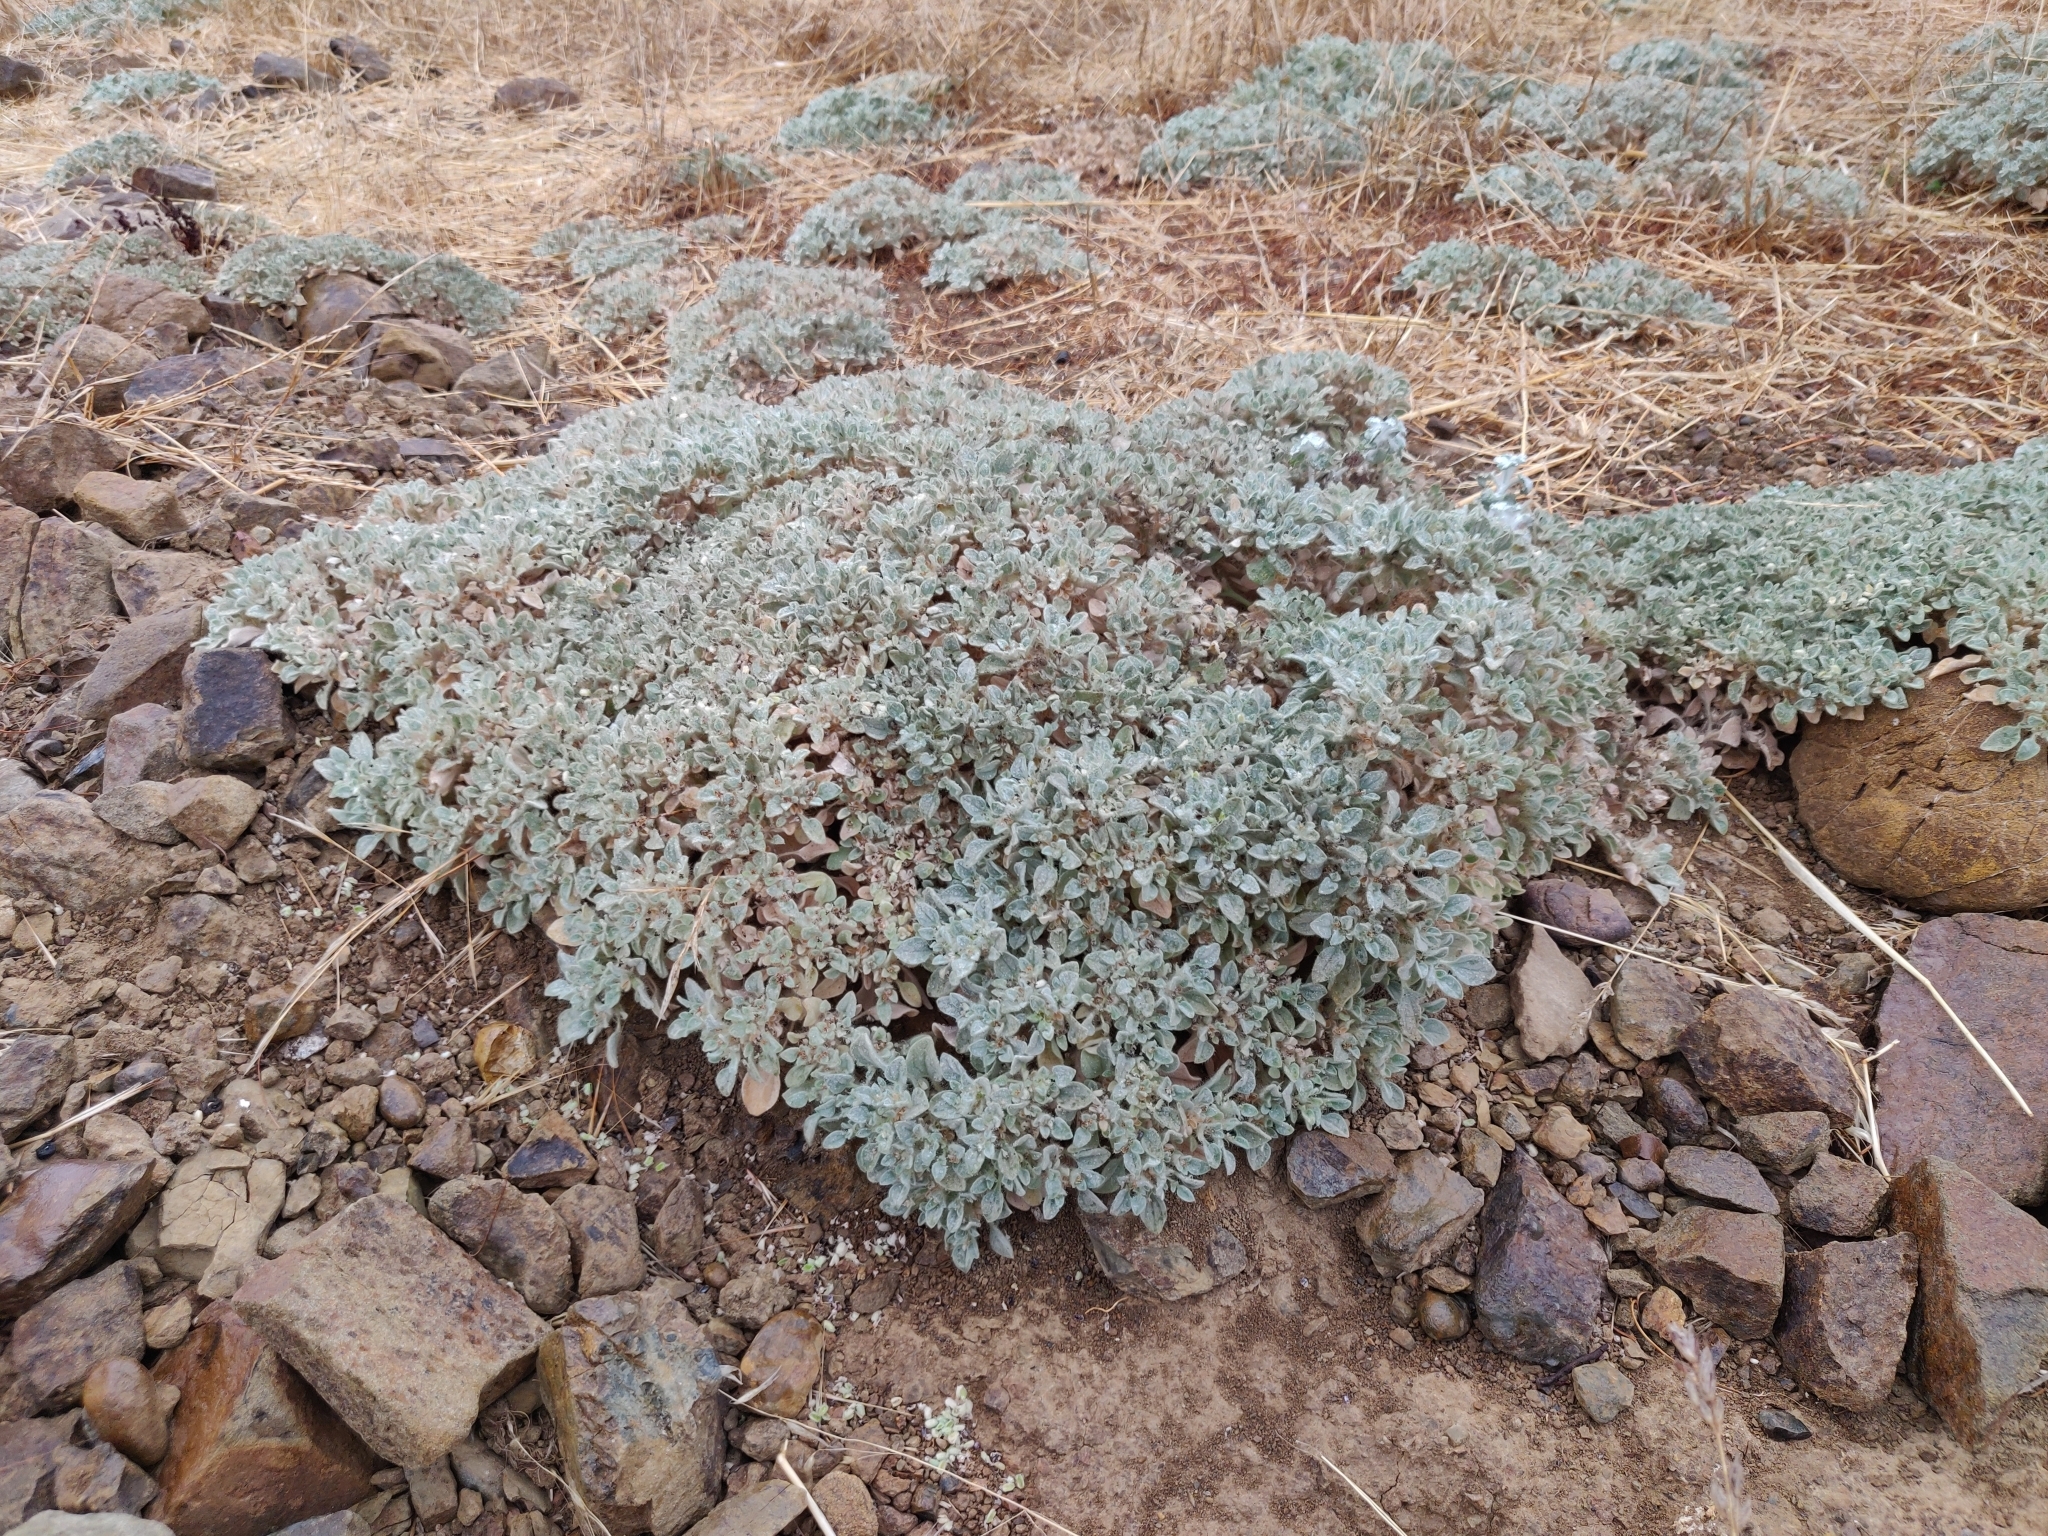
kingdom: Plantae
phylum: Tracheophyta
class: Magnoliopsida
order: Malpighiales
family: Euphorbiaceae
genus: Croton
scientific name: Croton setiger
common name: Dove weed
